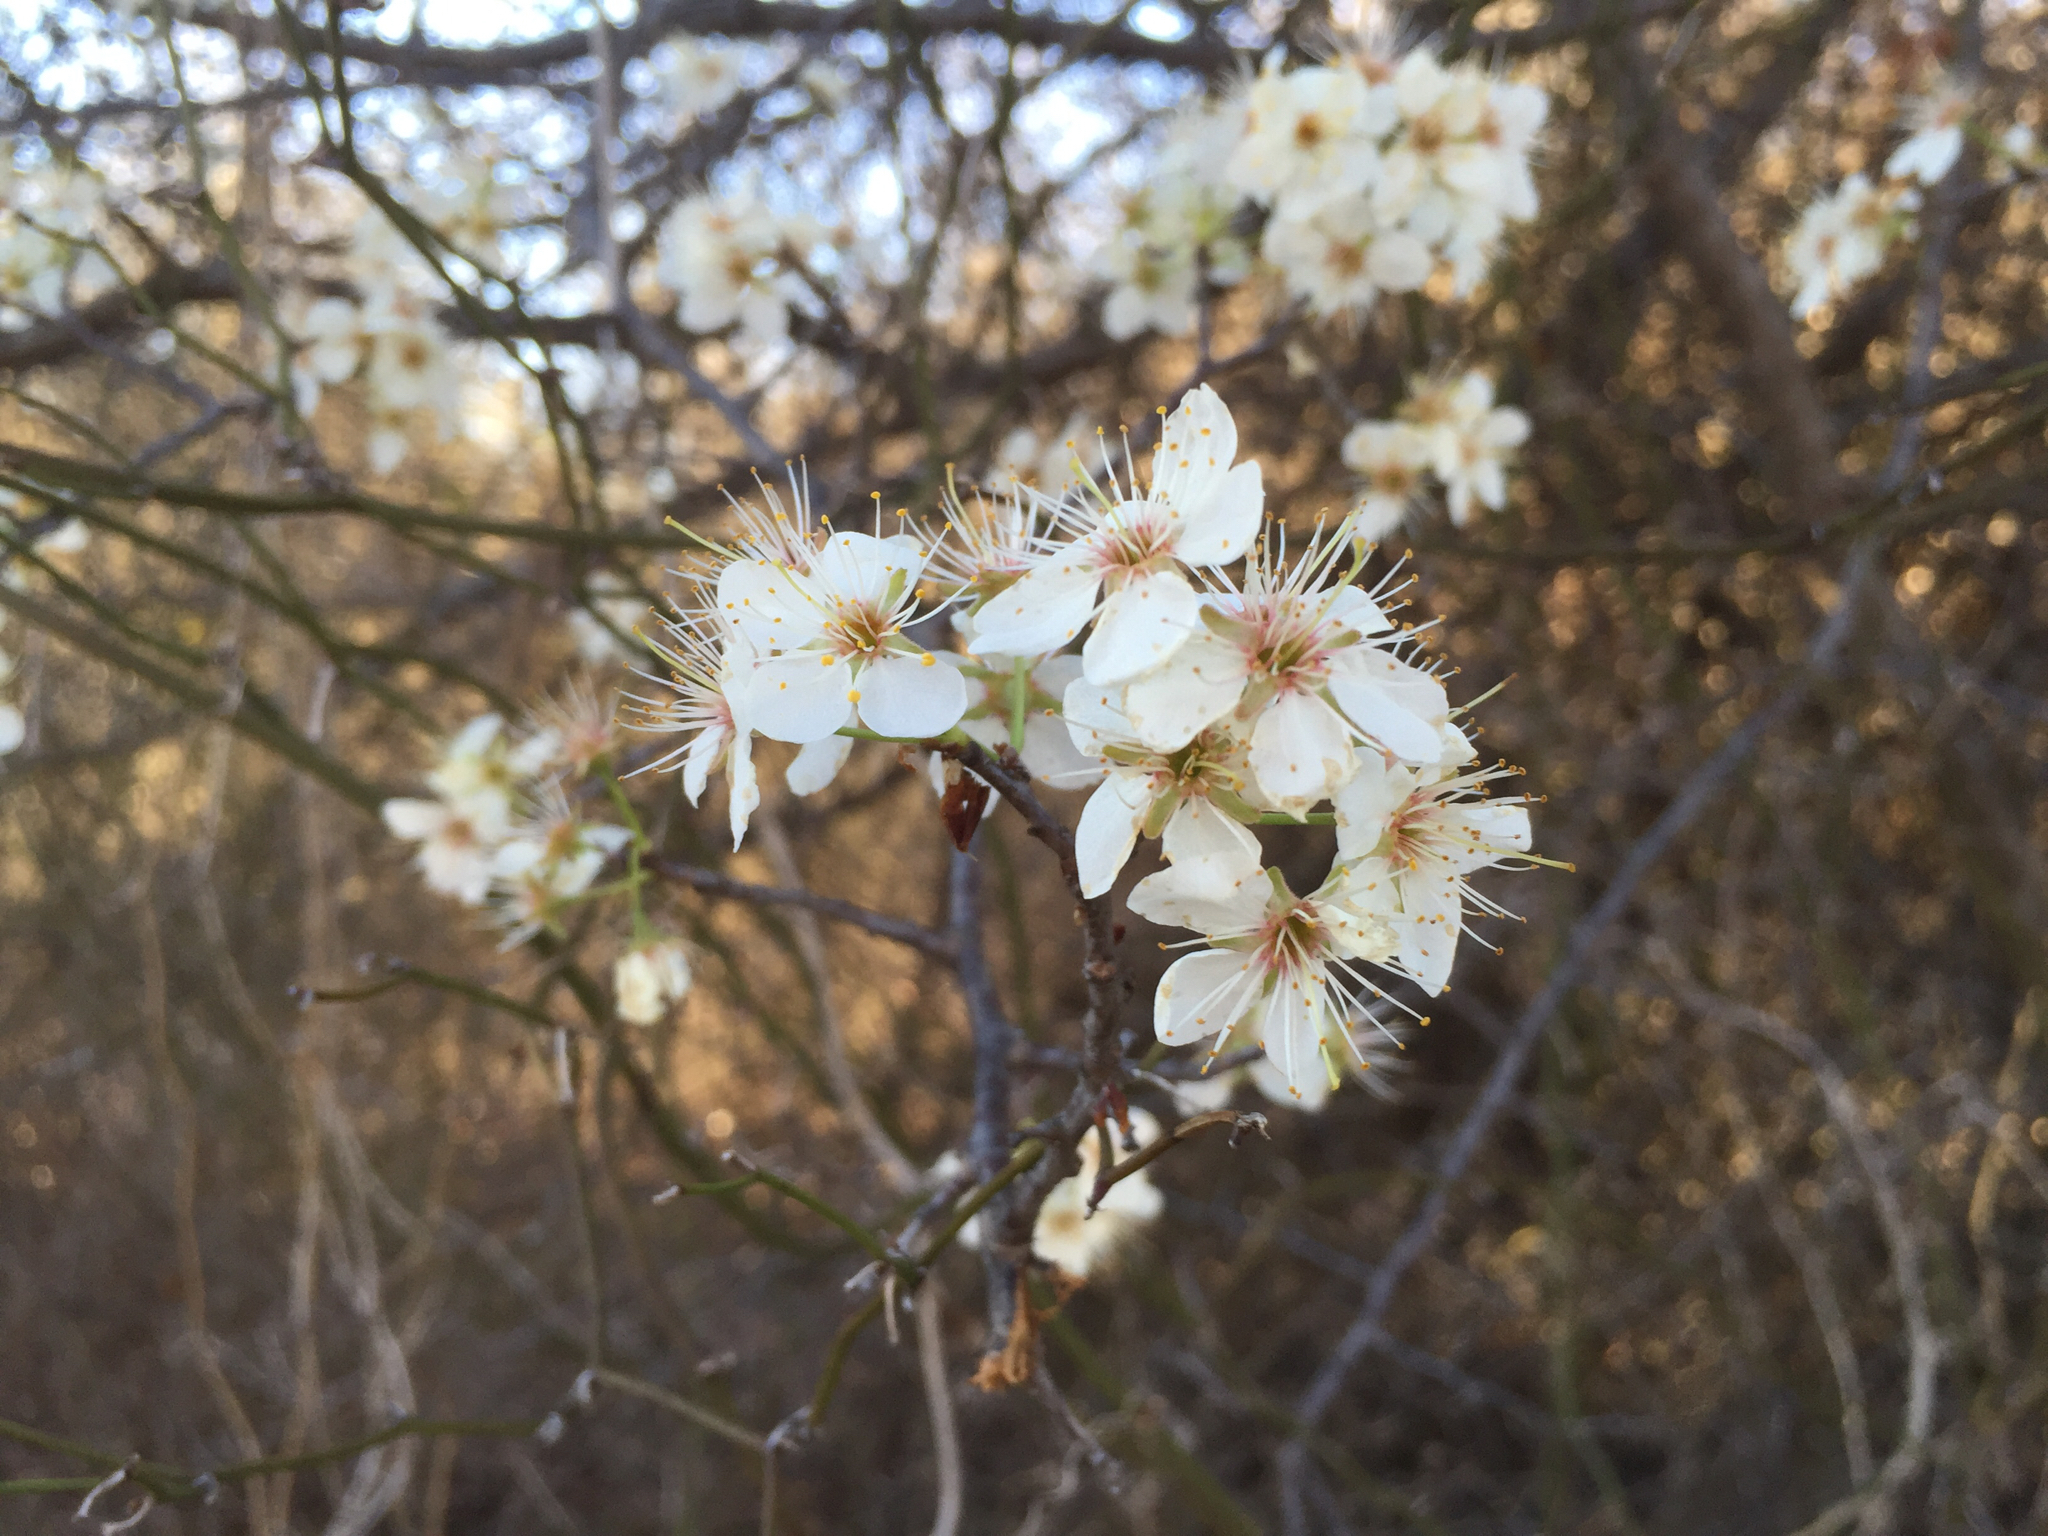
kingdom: Plantae
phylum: Tracheophyta
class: Magnoliopsida
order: Rosales
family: Rosaceae
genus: Prunus
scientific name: Prunus mexicana
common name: Mexican plum
